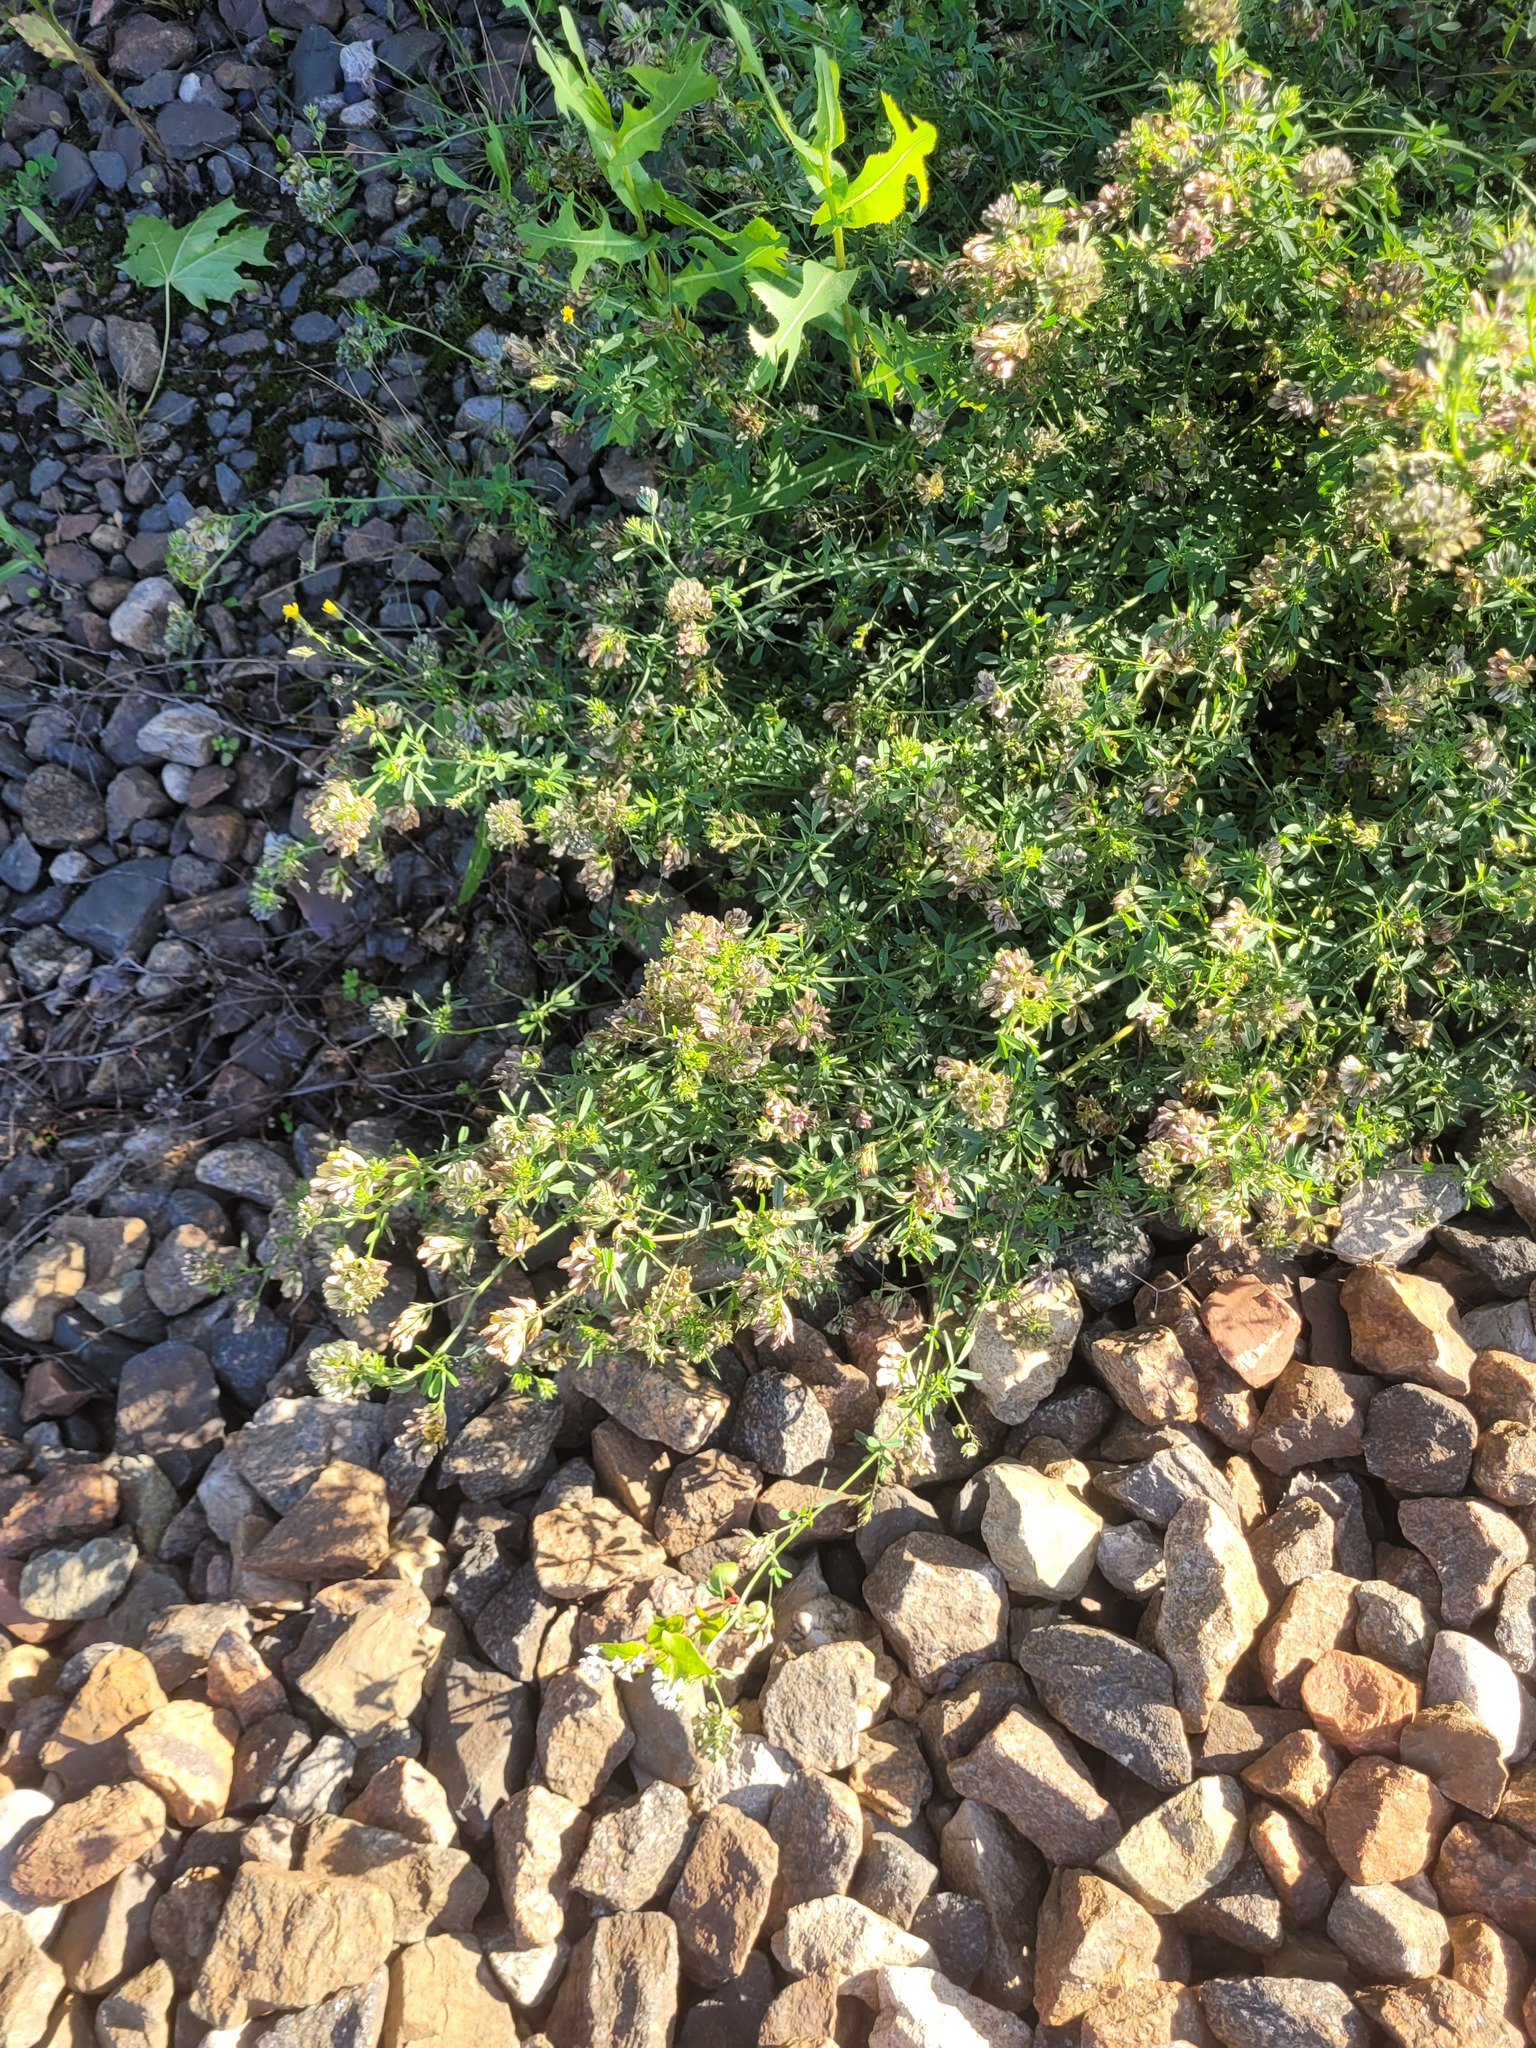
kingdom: Plantae
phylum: Tracheophyta
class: Magnoliopsida
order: Fabales
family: Fabaceae
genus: Medicago
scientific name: Medicago varia
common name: Sand lucerne
